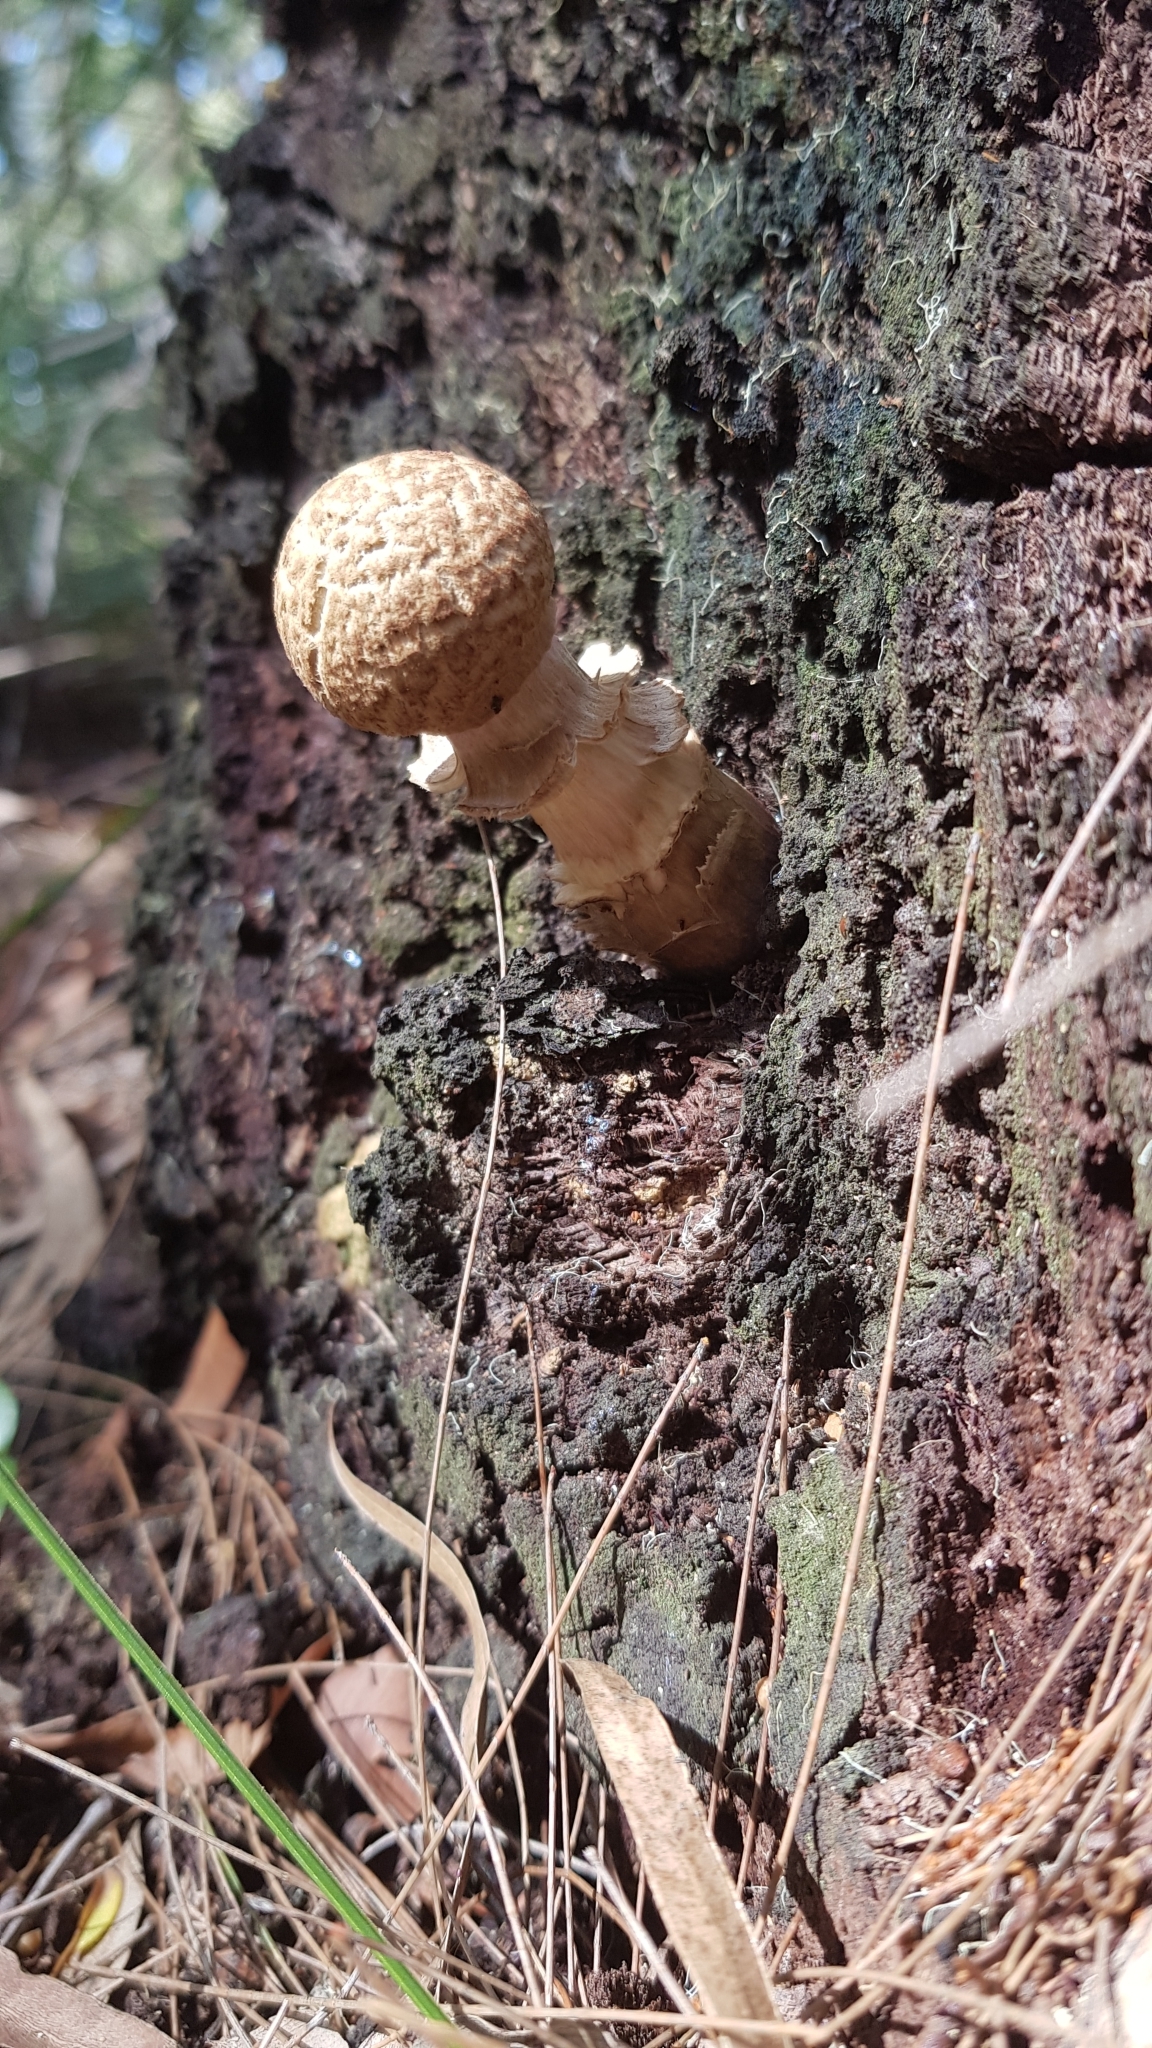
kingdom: Fungi
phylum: Basidiomycota
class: Agaricomycetes
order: Boletales
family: Boletaceae
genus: Boletellus
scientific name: Boletellus dissiliens
